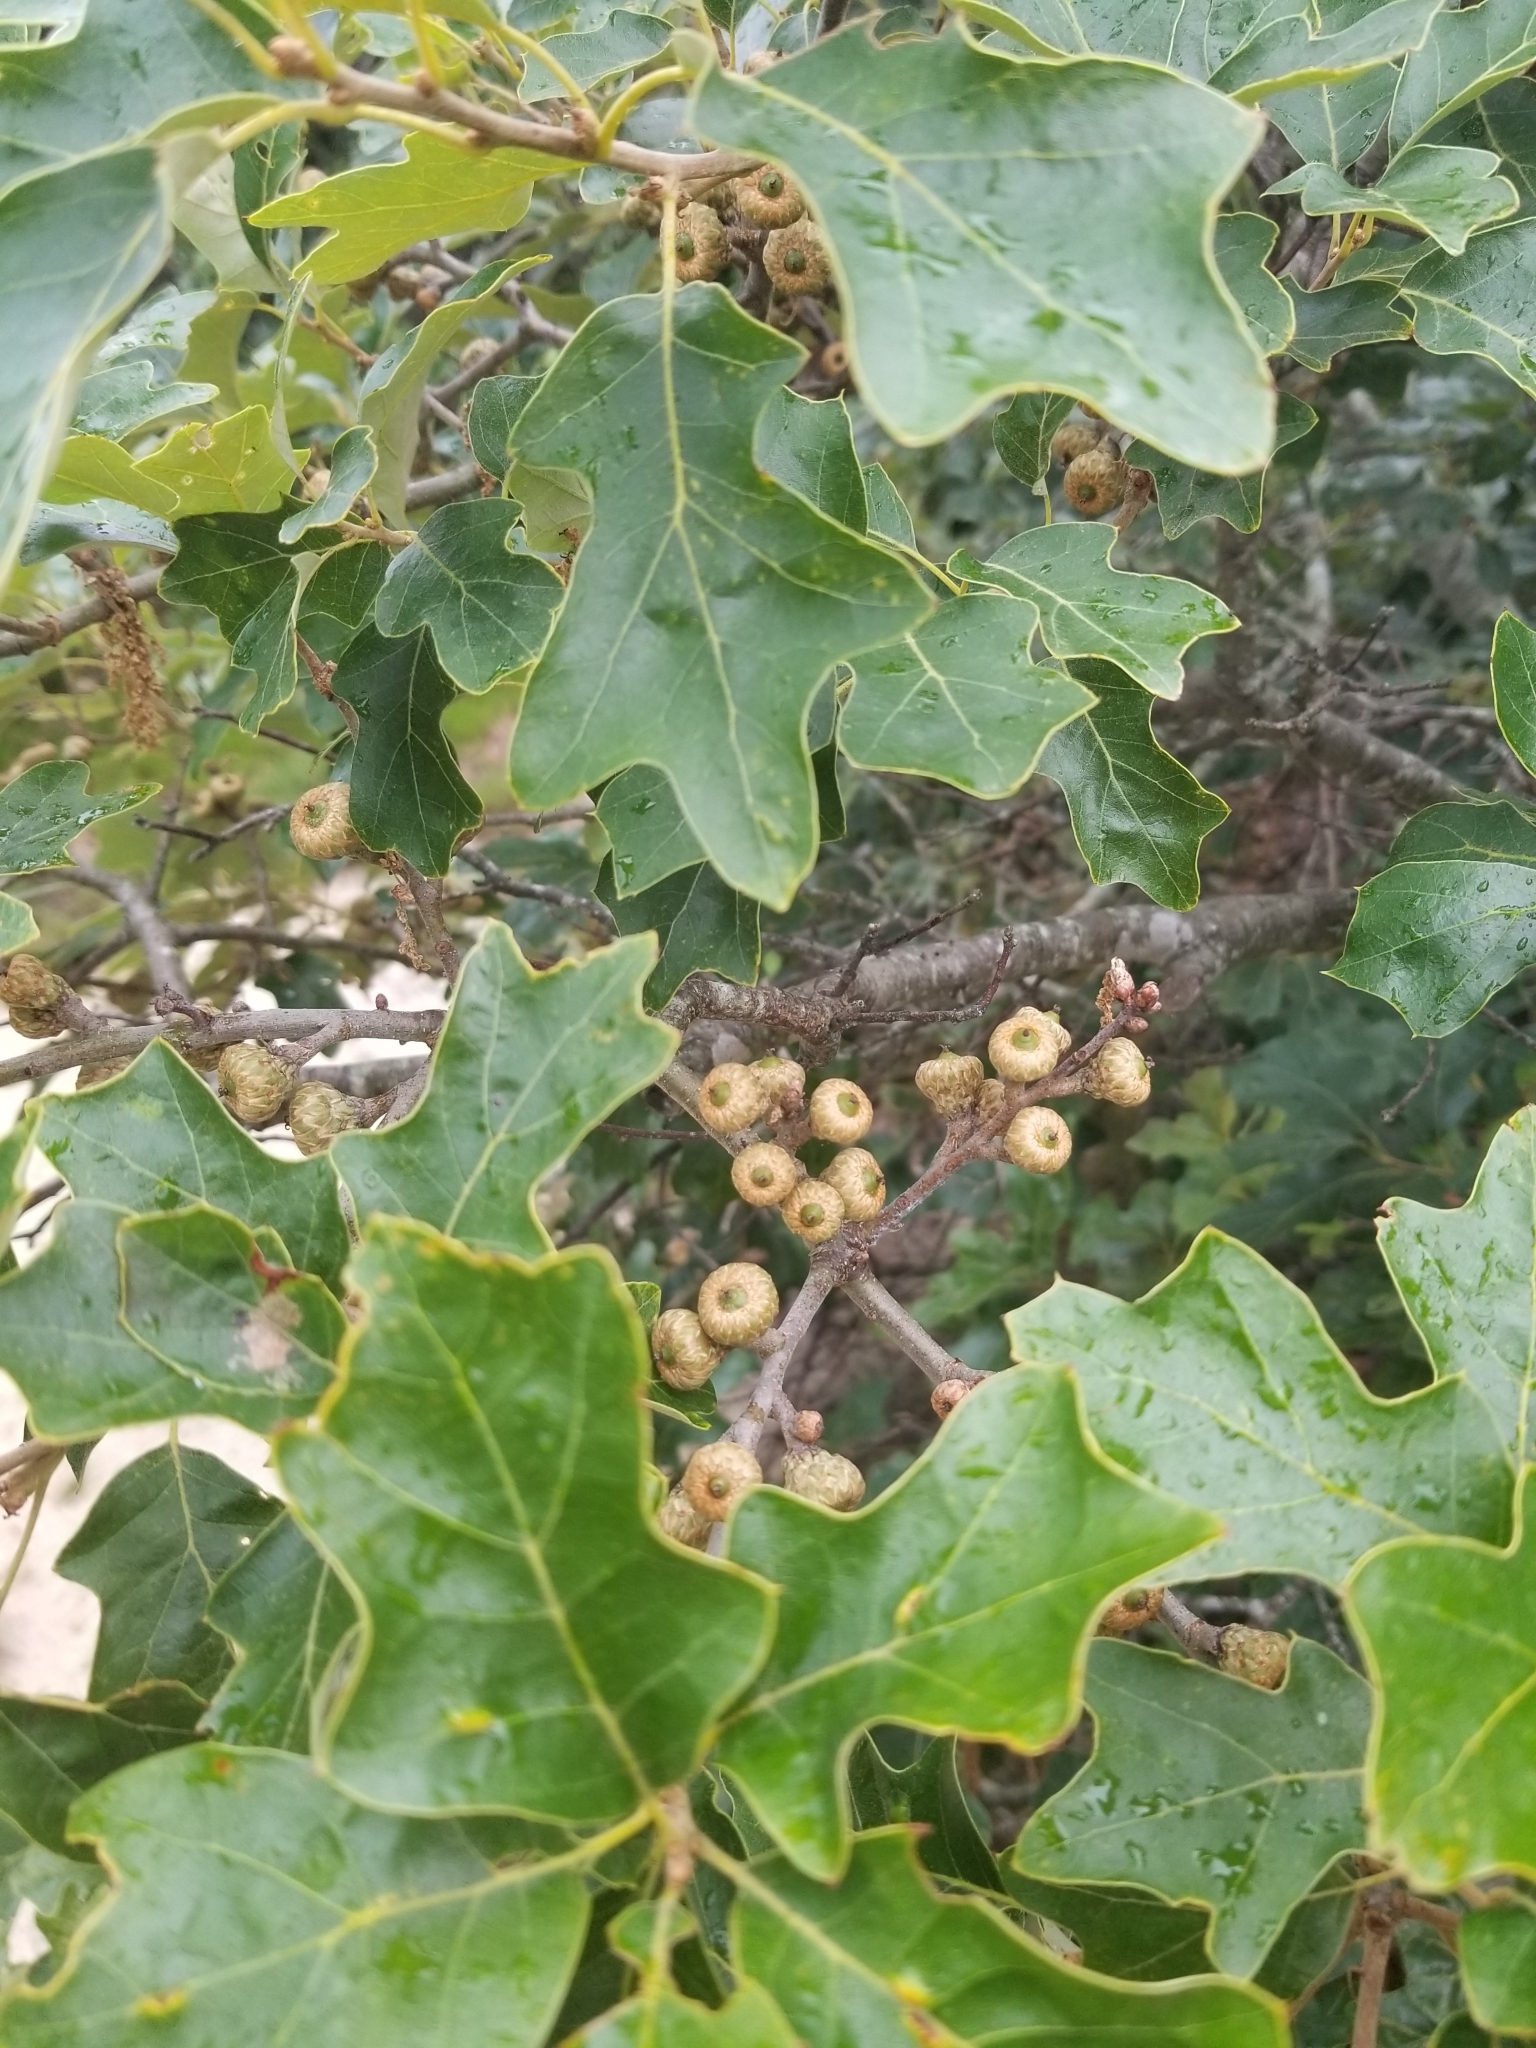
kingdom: Plantae
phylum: Tracheophyta
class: Magnoliopsida
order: Fagales
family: Fagaceae
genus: Quercus
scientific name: Quercus ilicifolia
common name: Bear oak
